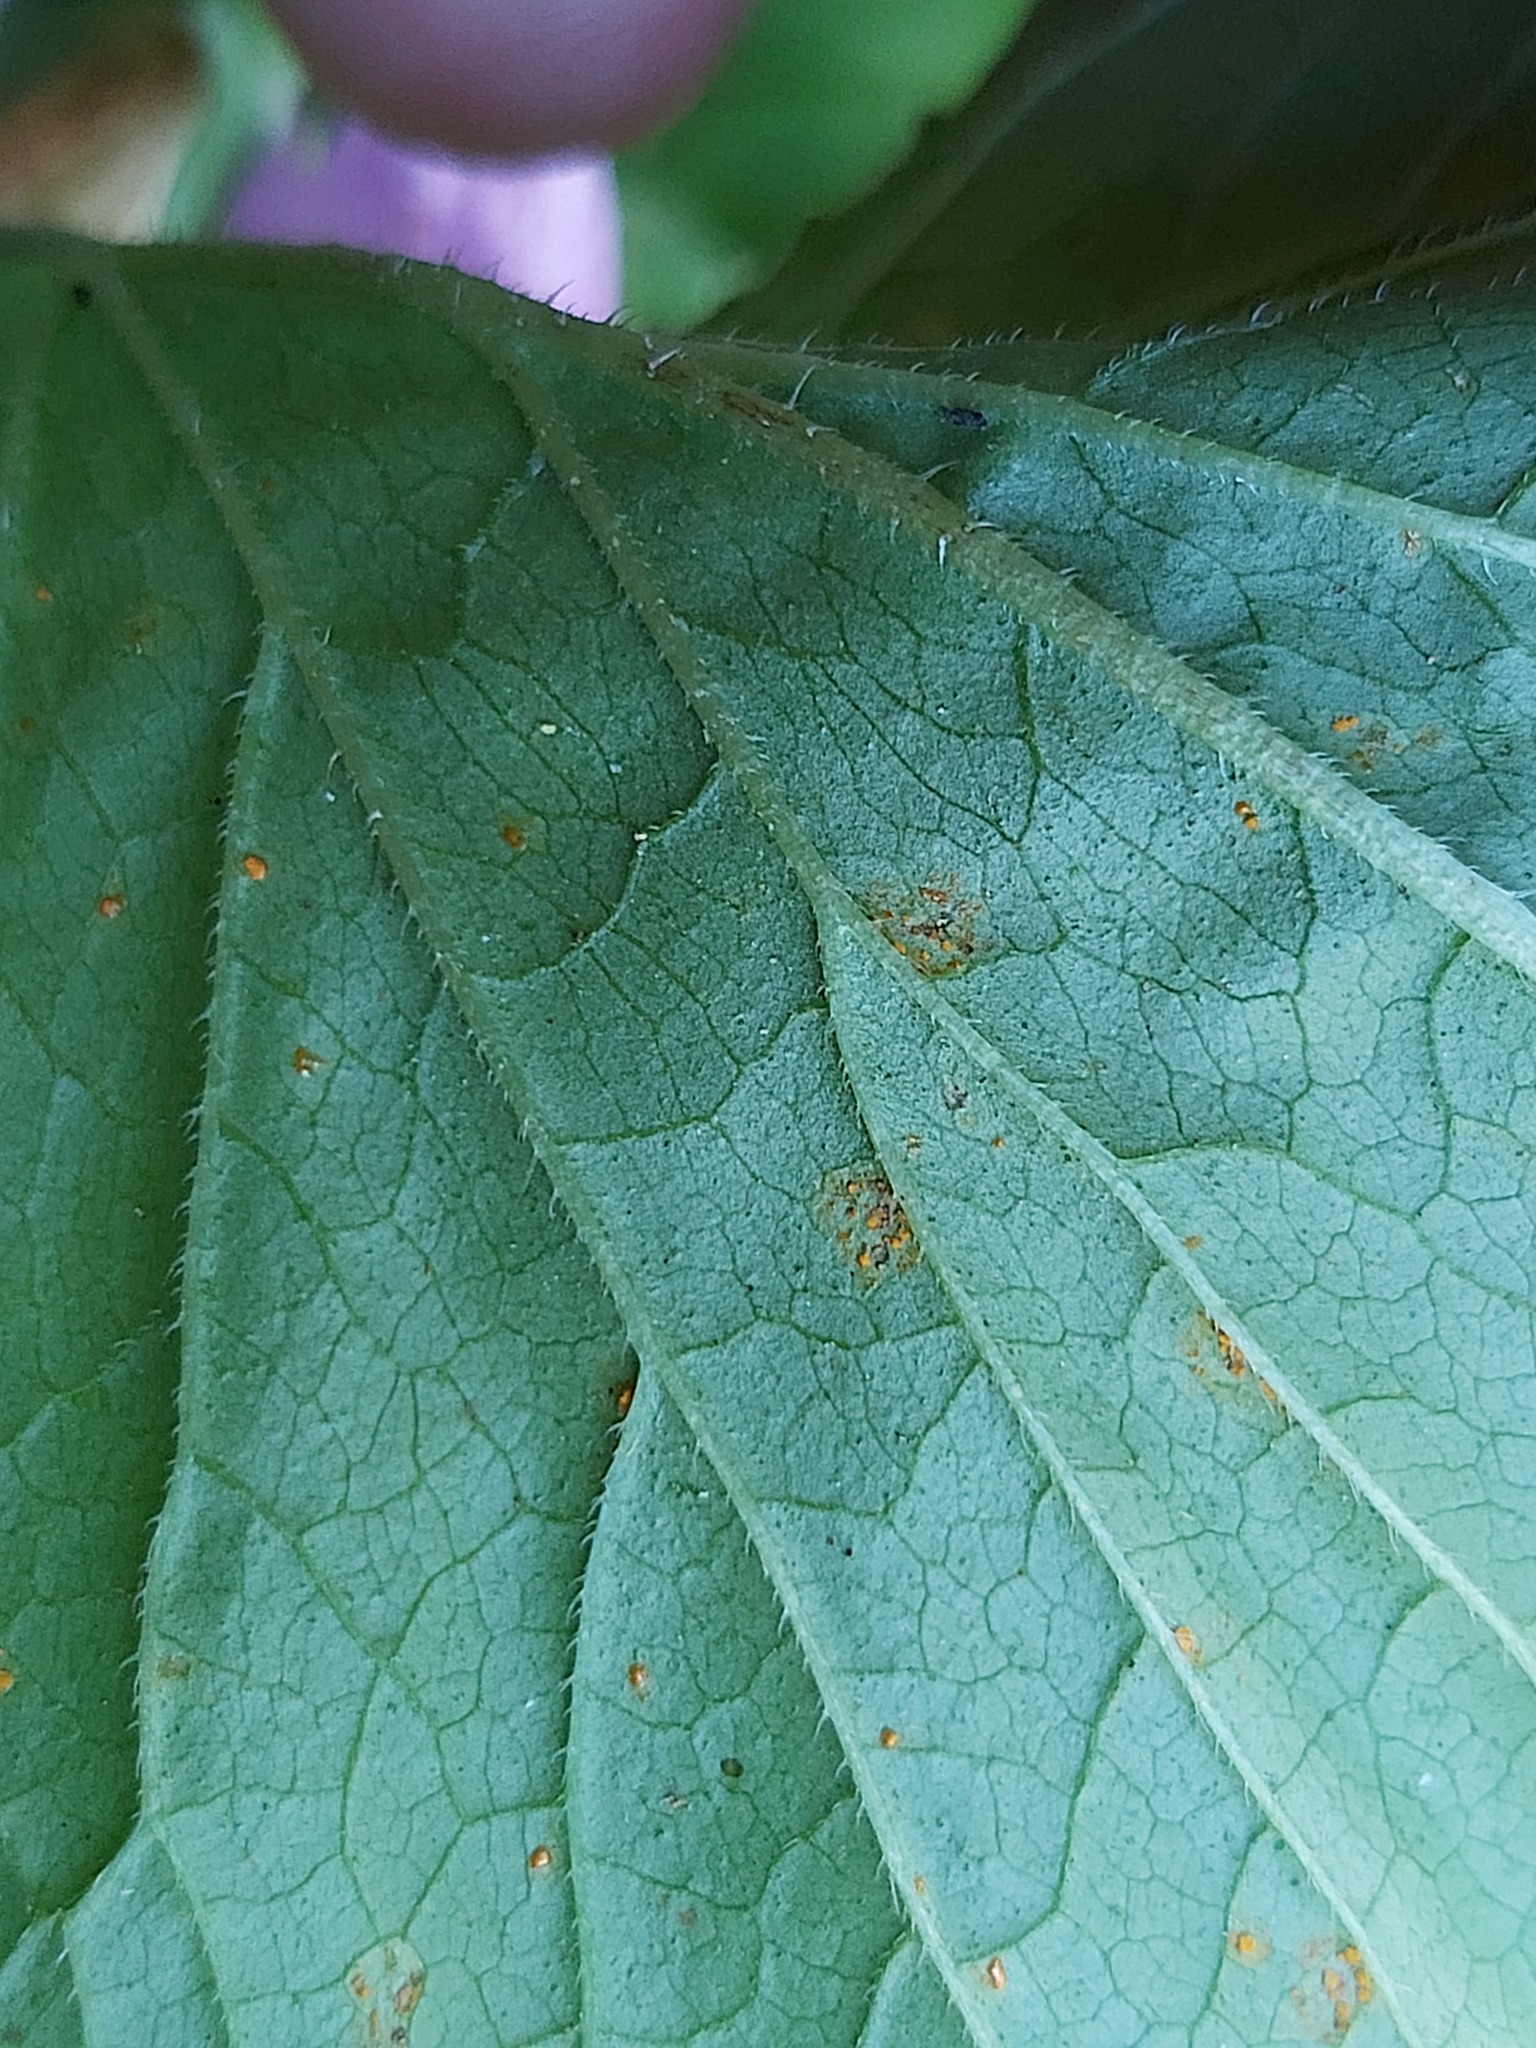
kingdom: Fungi
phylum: Basidiomycota
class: Pucciniomycetes
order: Pucciniales
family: Coleosporiaceae
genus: Coleosporium
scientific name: Coleosporium campanulae
